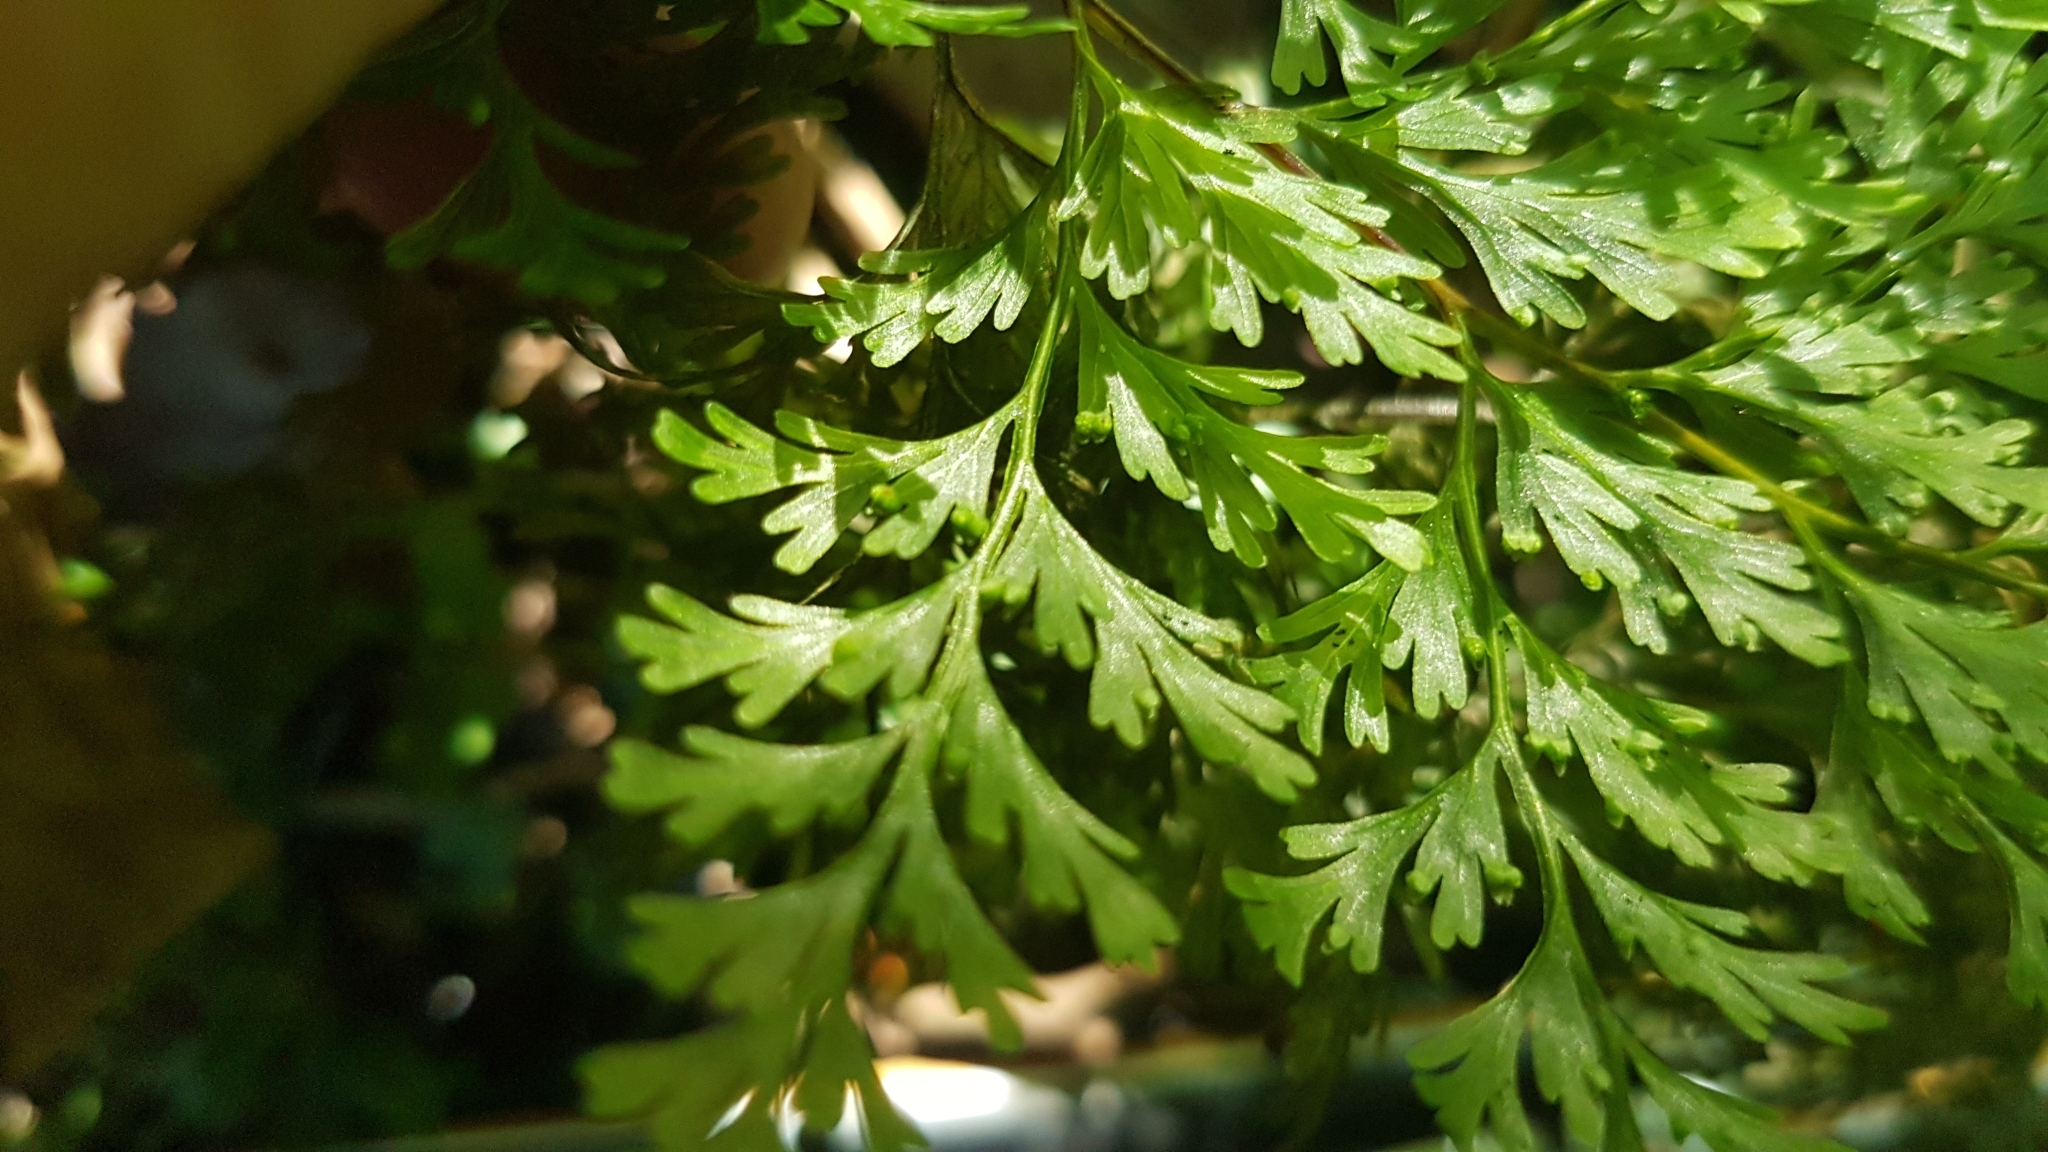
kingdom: Plantae
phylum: Tracheophyta
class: Polypodiopsida
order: Hymenophyllales
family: Hymenophyllaceae
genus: Hymenophyllum
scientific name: Hymenophyllum demissum
